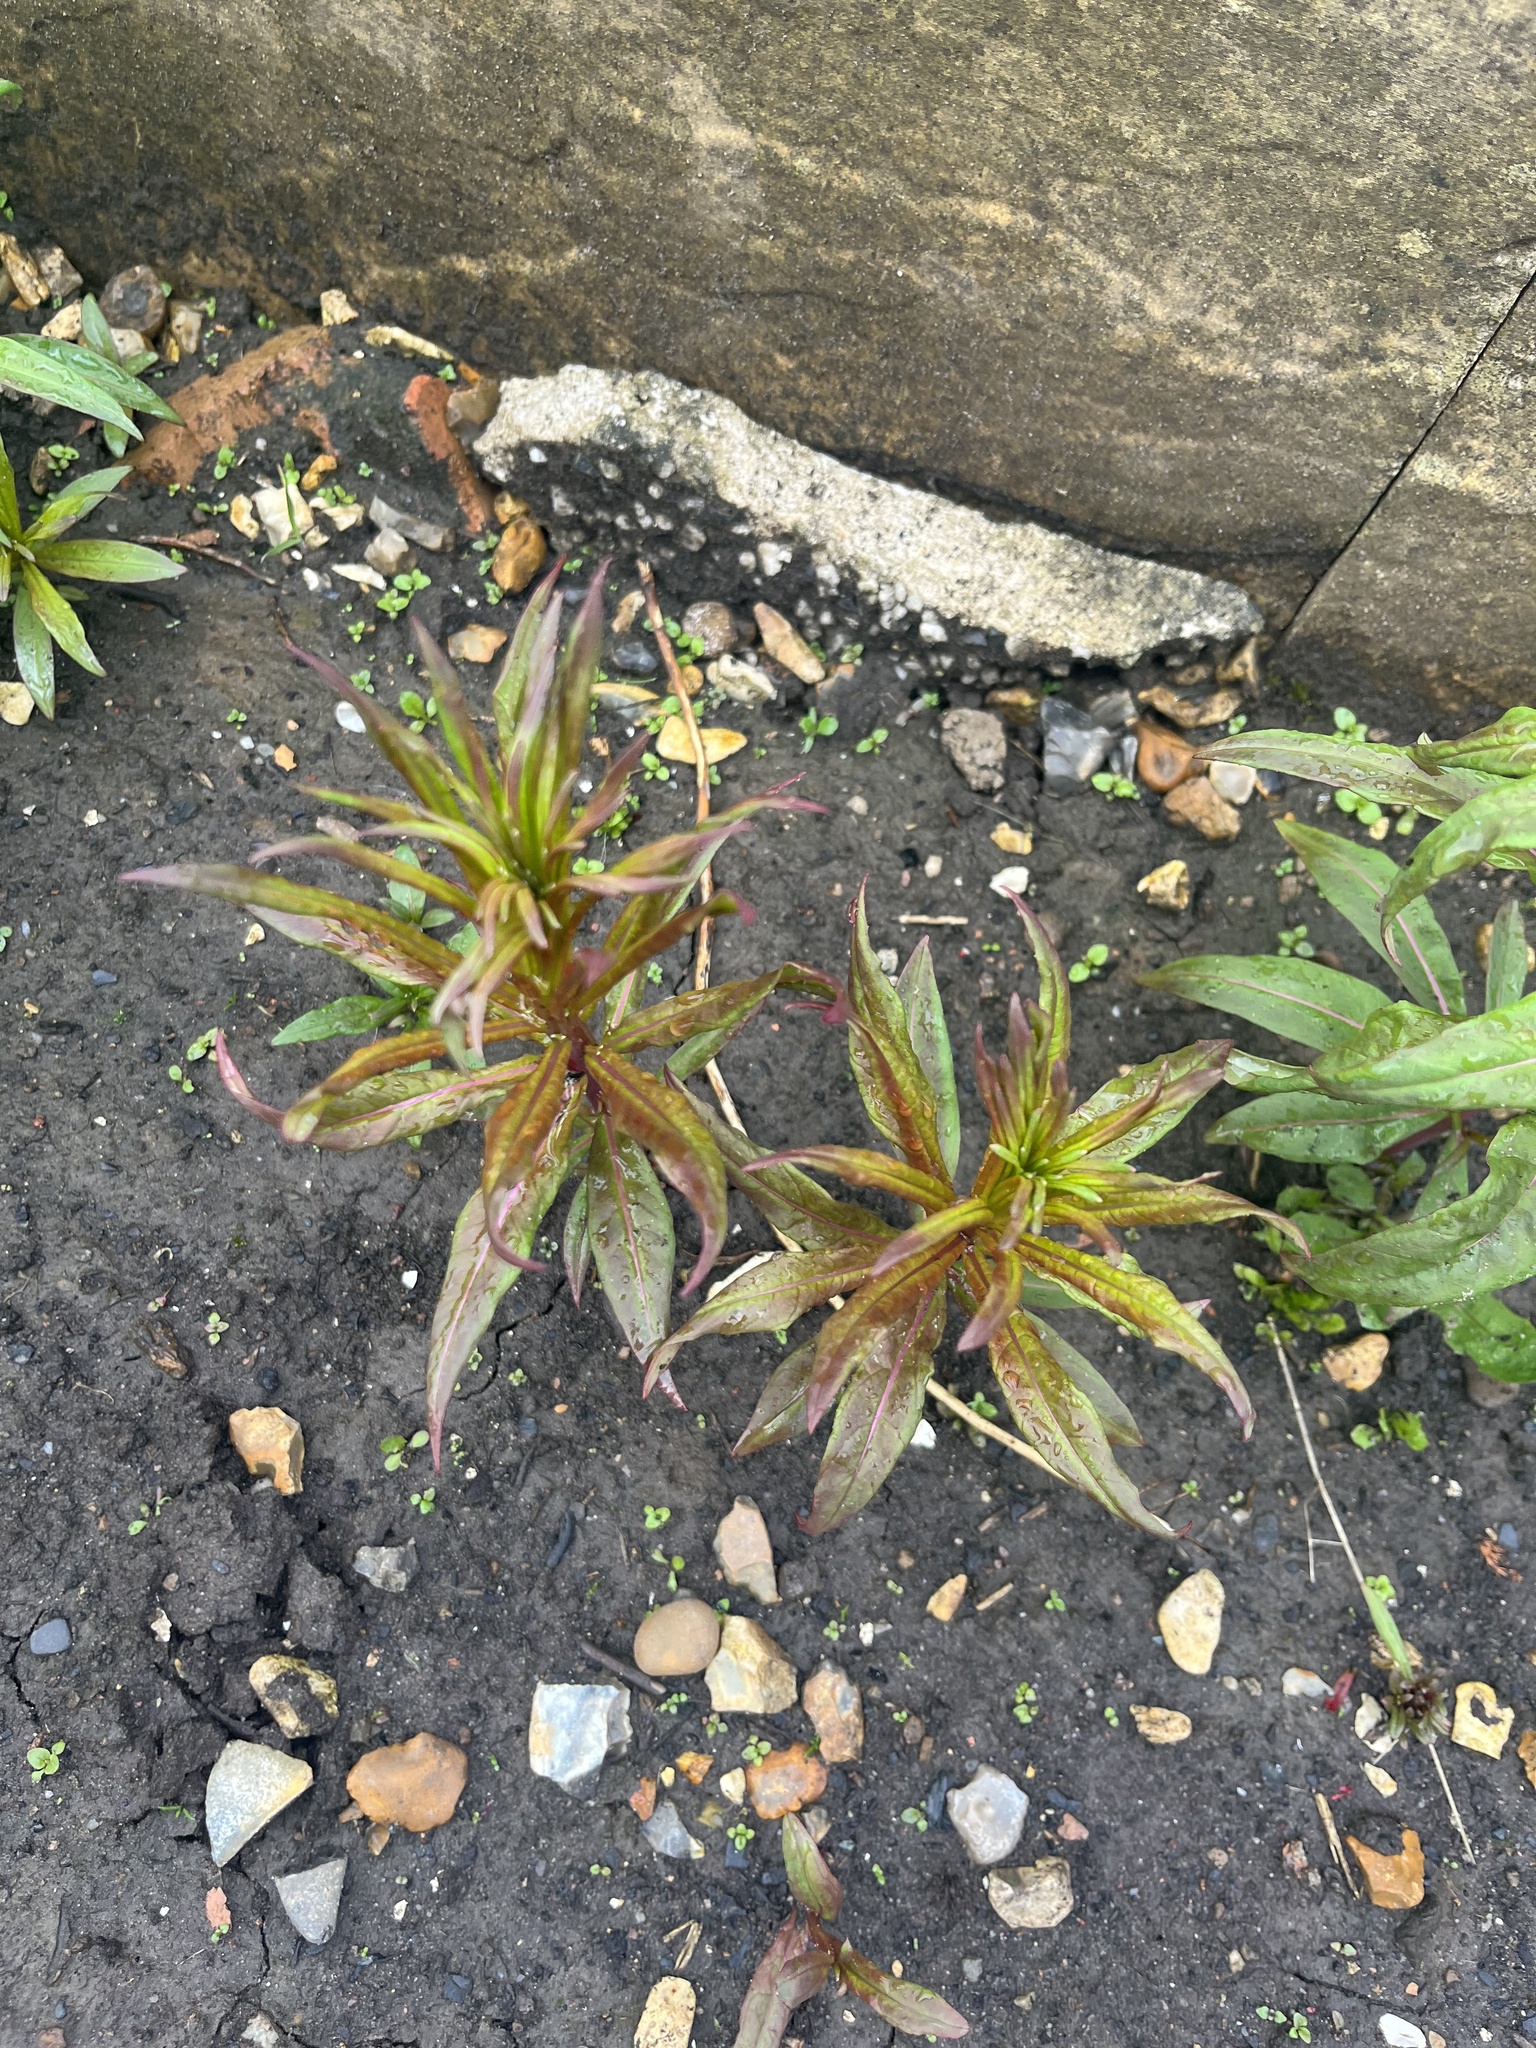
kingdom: Plantae
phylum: Tracheophyta
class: Magnoliopsida
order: Myrtales
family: Onagraceae
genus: Chamaenerion
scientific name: Chamaenerion angustifolium
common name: Fireweed
